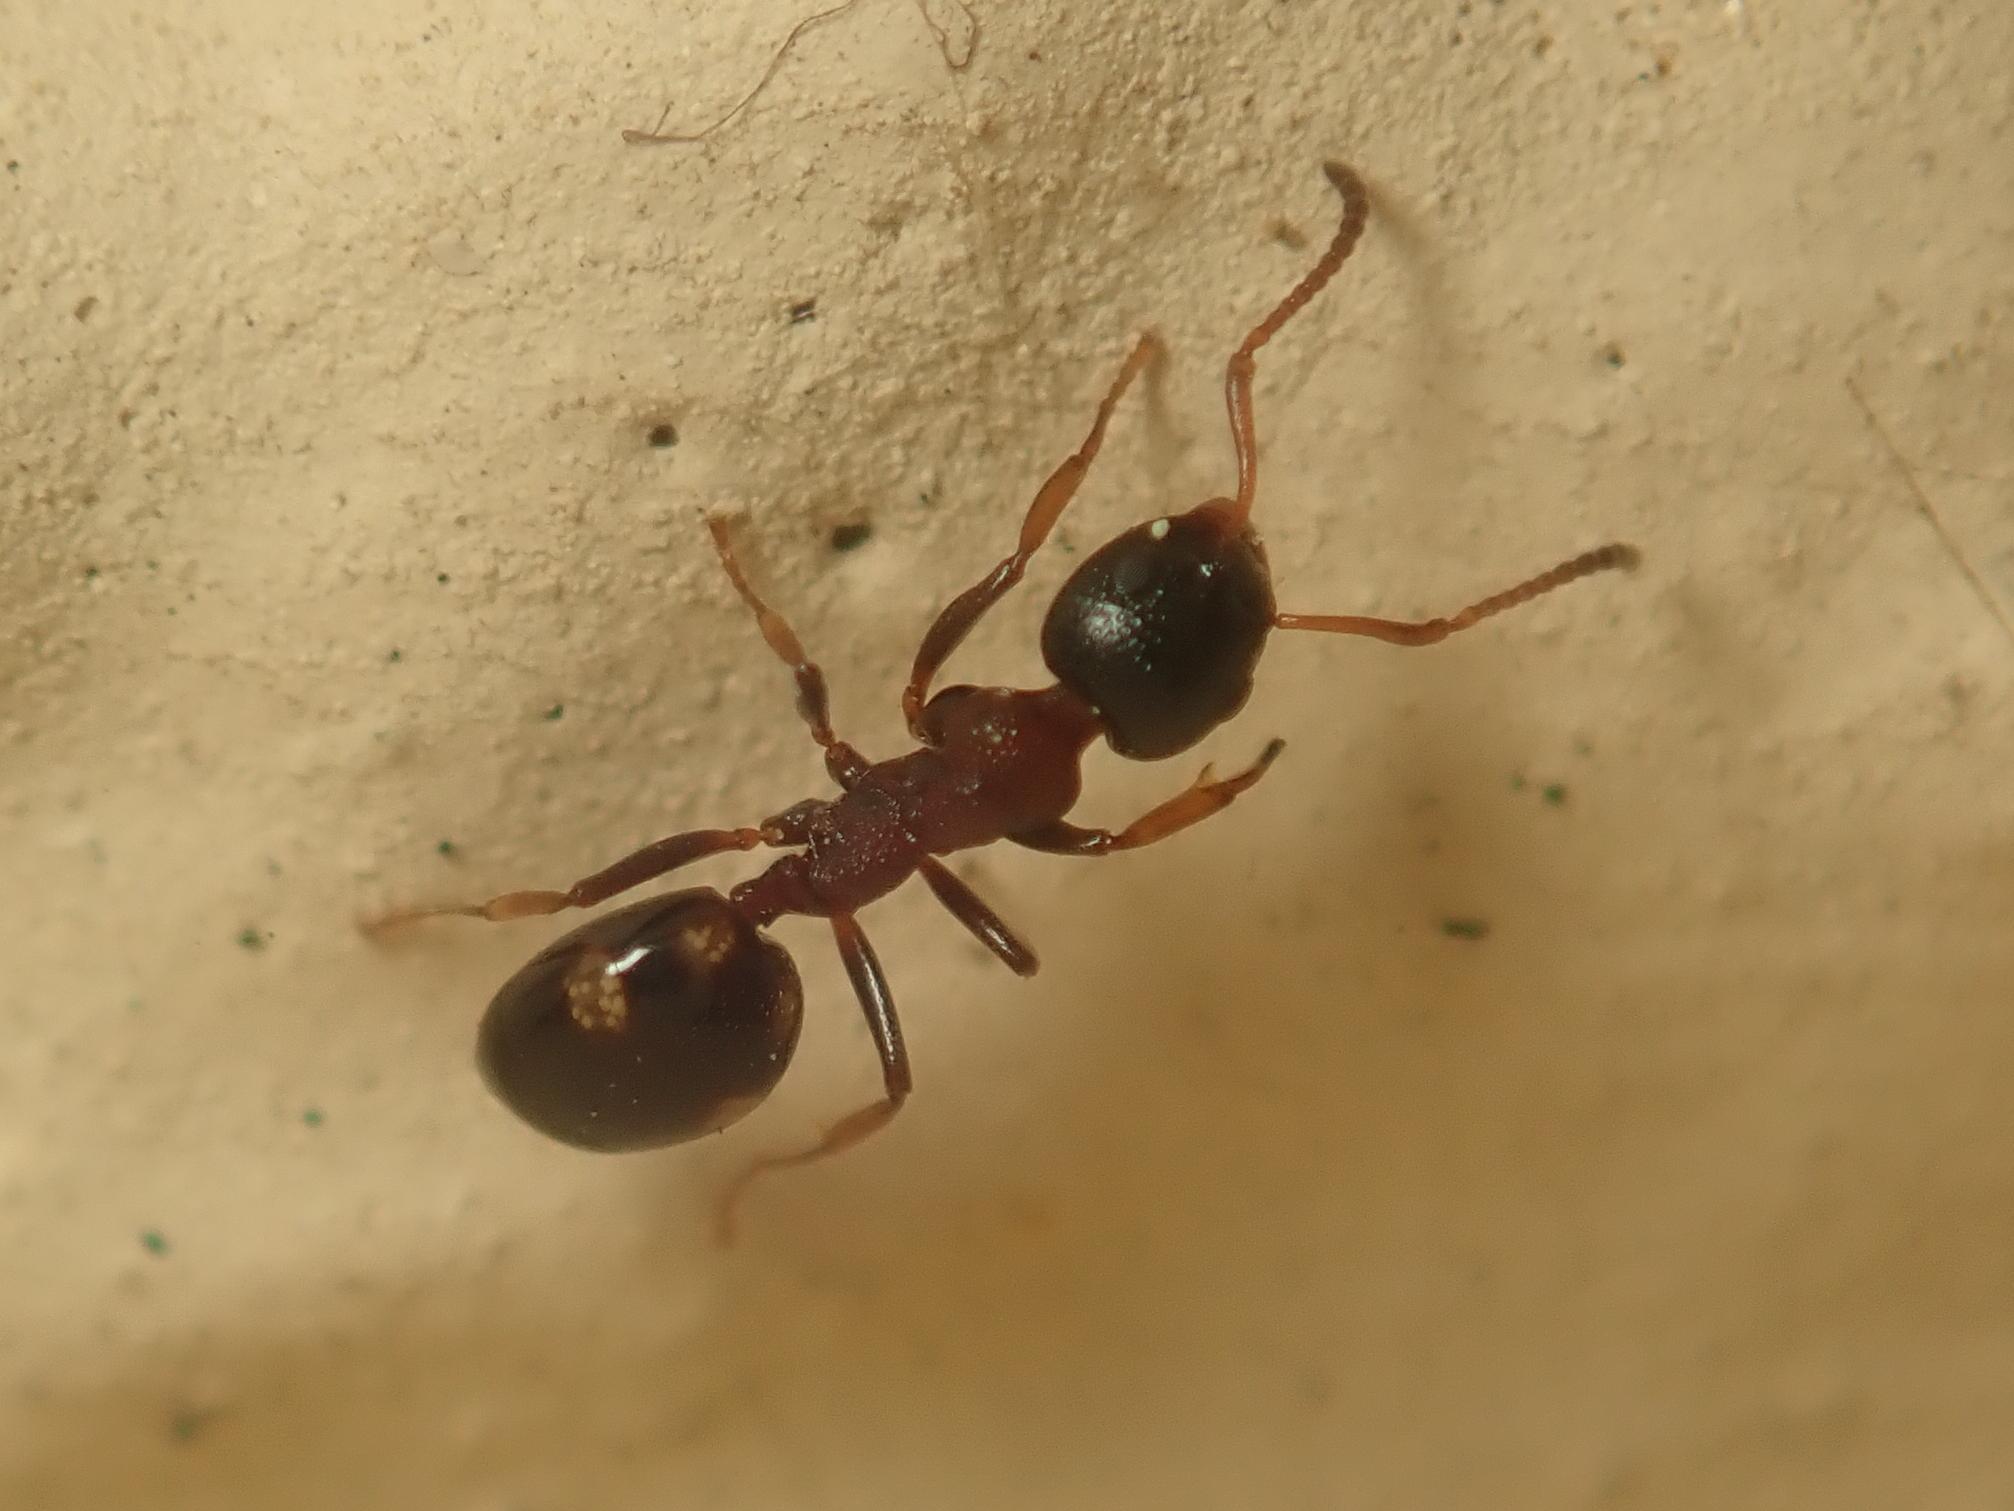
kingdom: Animalia
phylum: Arthropoda
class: Insecta
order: Hymenoptera
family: Formicidae
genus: Dolichoderus
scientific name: Dolichoderus quadripunctatus
